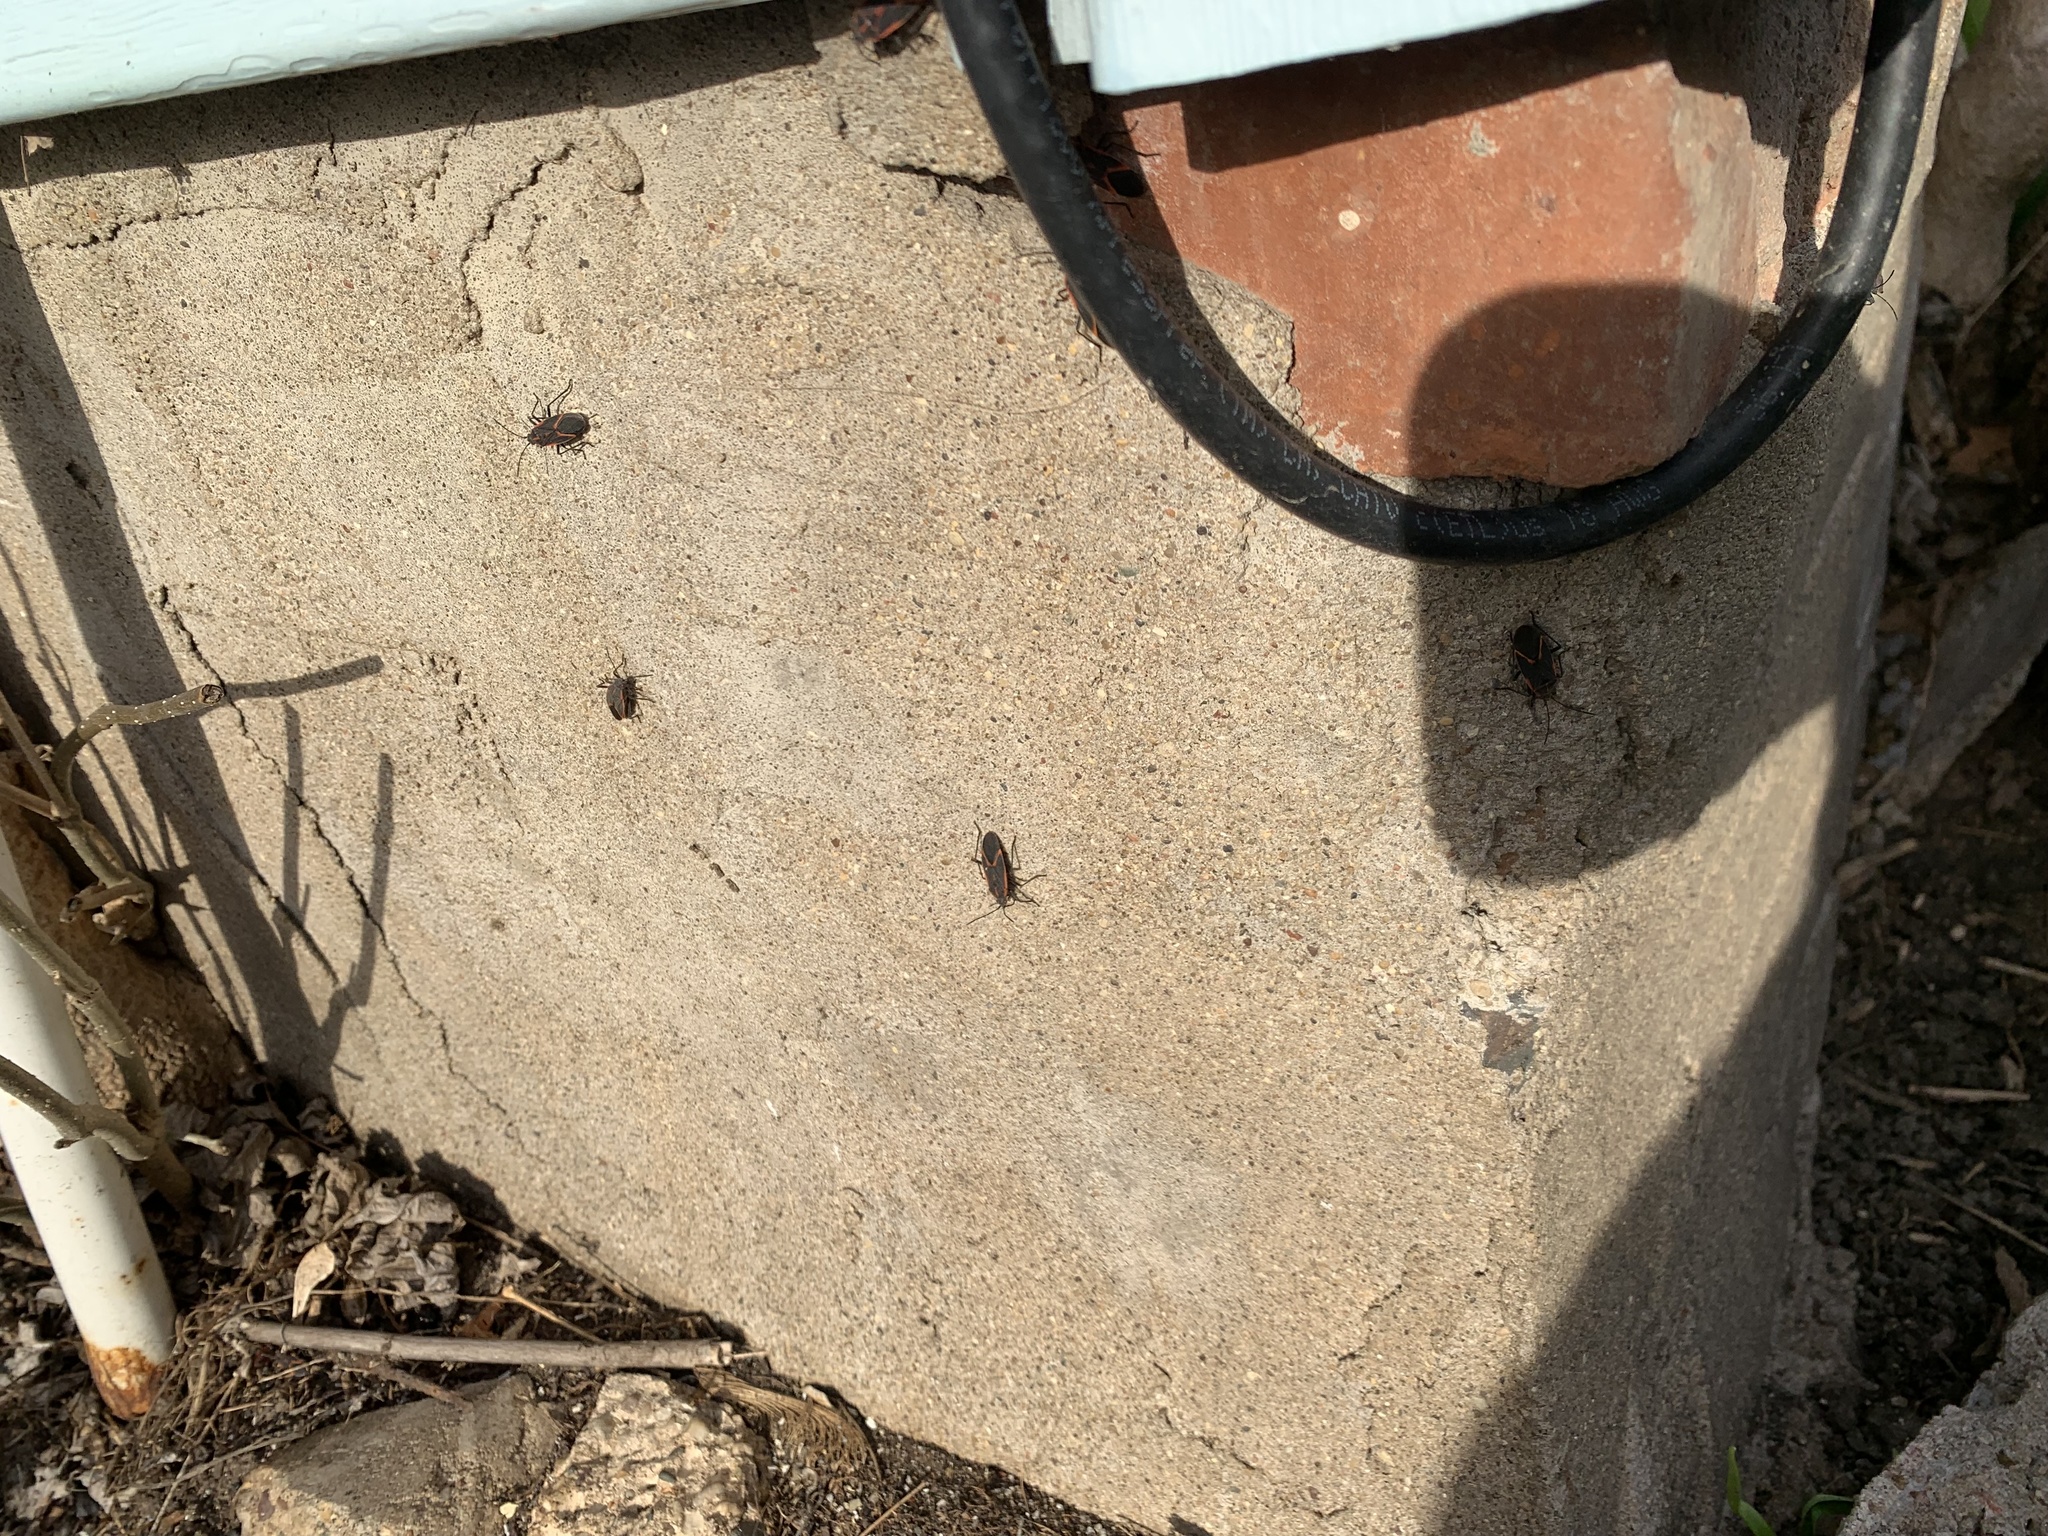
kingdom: Animalia
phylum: Arthropoda
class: Insecta
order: Hemiptera
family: Rhopalidae
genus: Boisea
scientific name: Boisea trivittata
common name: Boxelder bug
